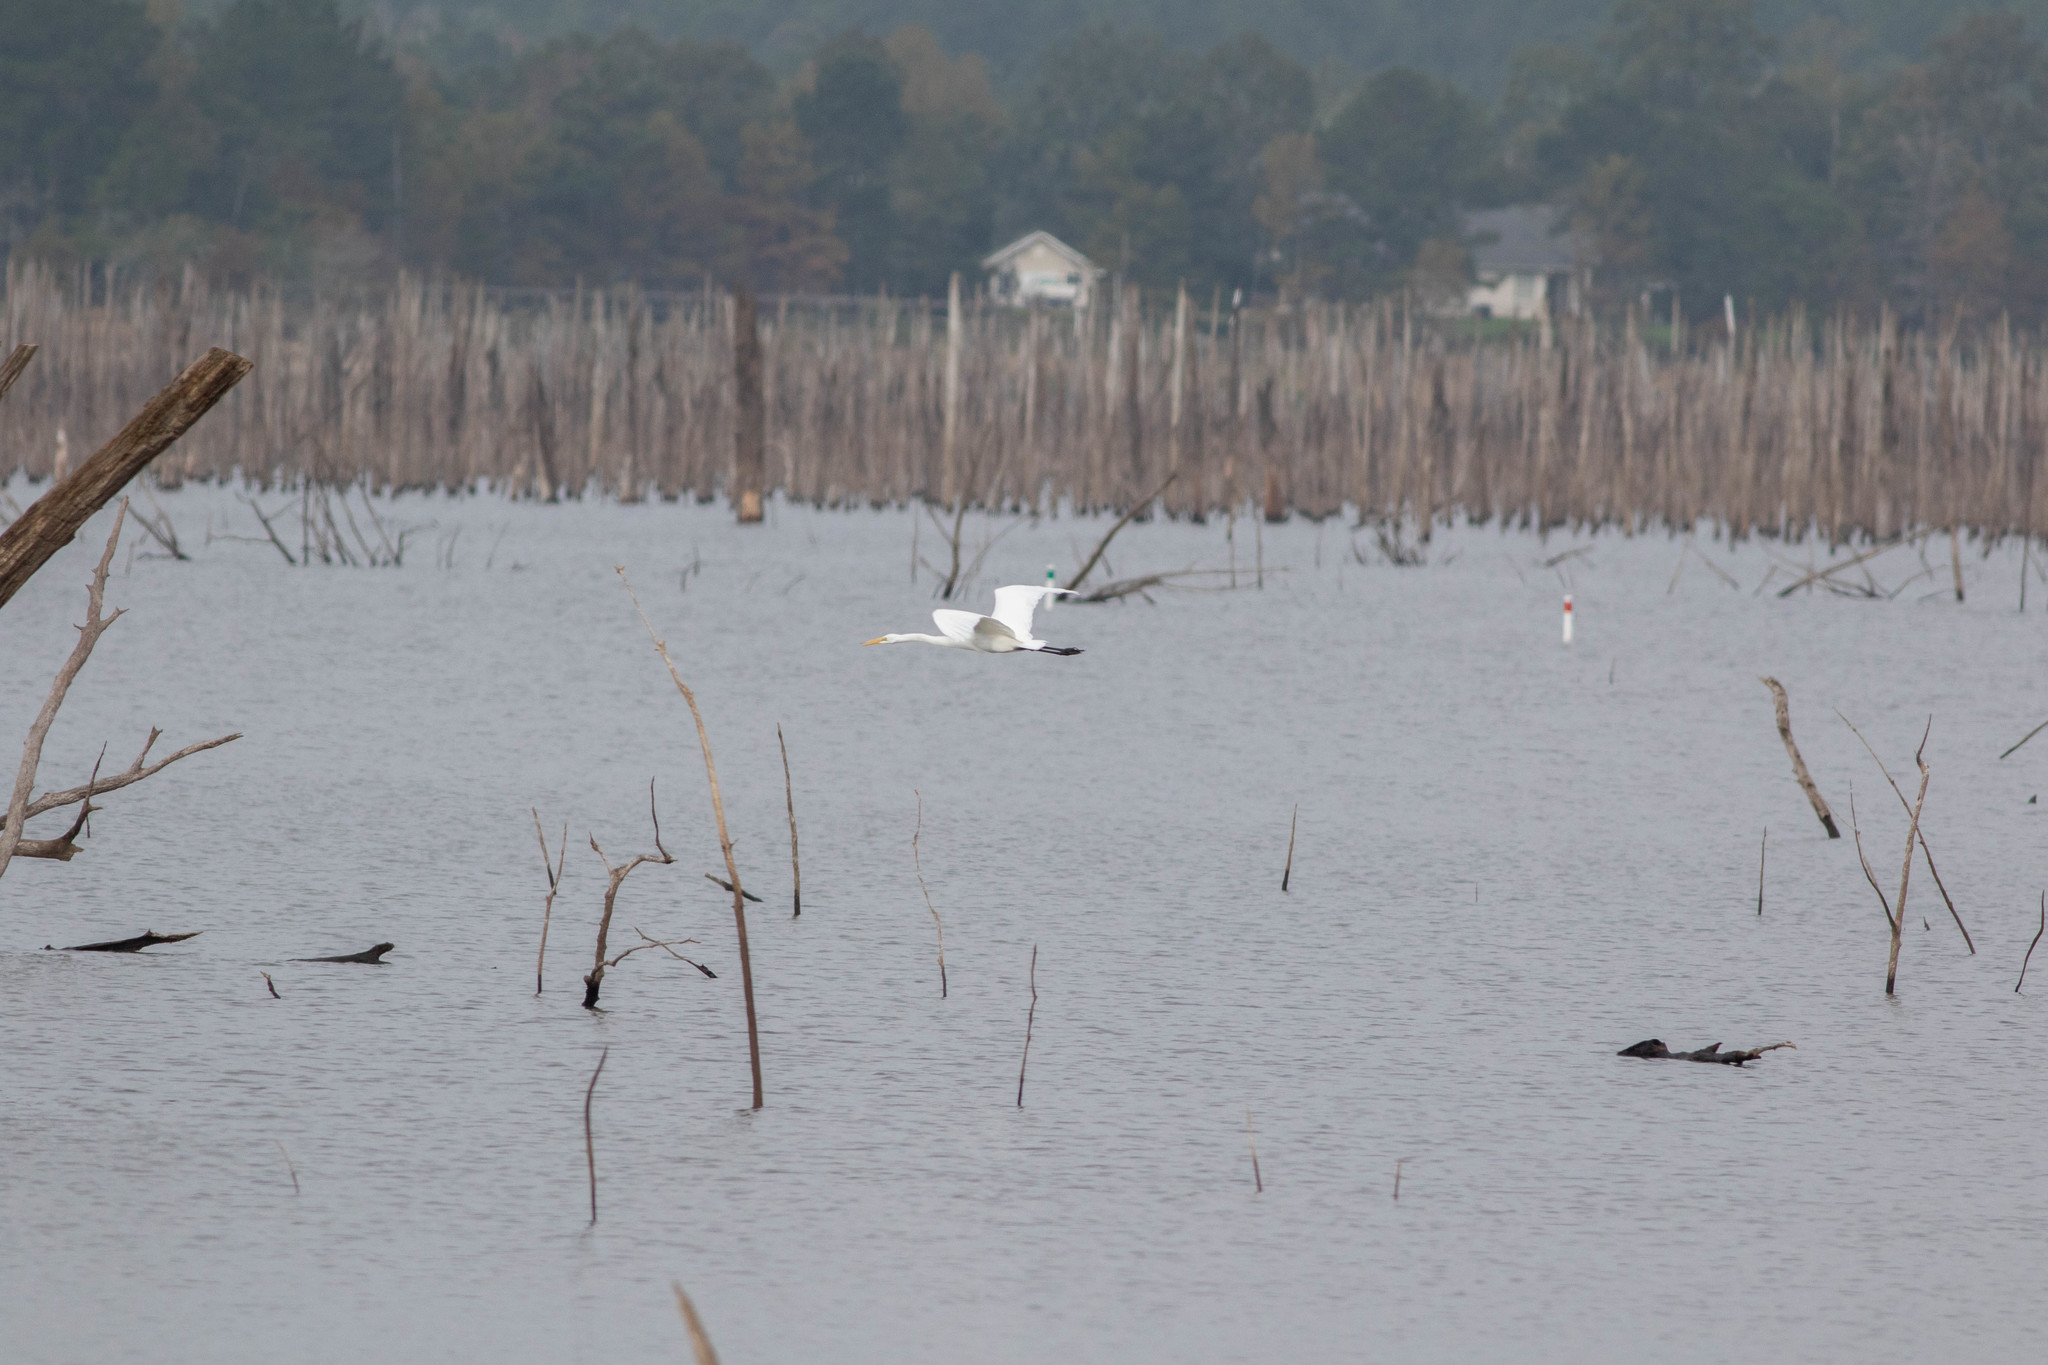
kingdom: Animalia
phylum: Chordata
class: Aves
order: Pelecaniformes
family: Ardeidae
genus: Ardea
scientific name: Ardea alba
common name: Great egret
